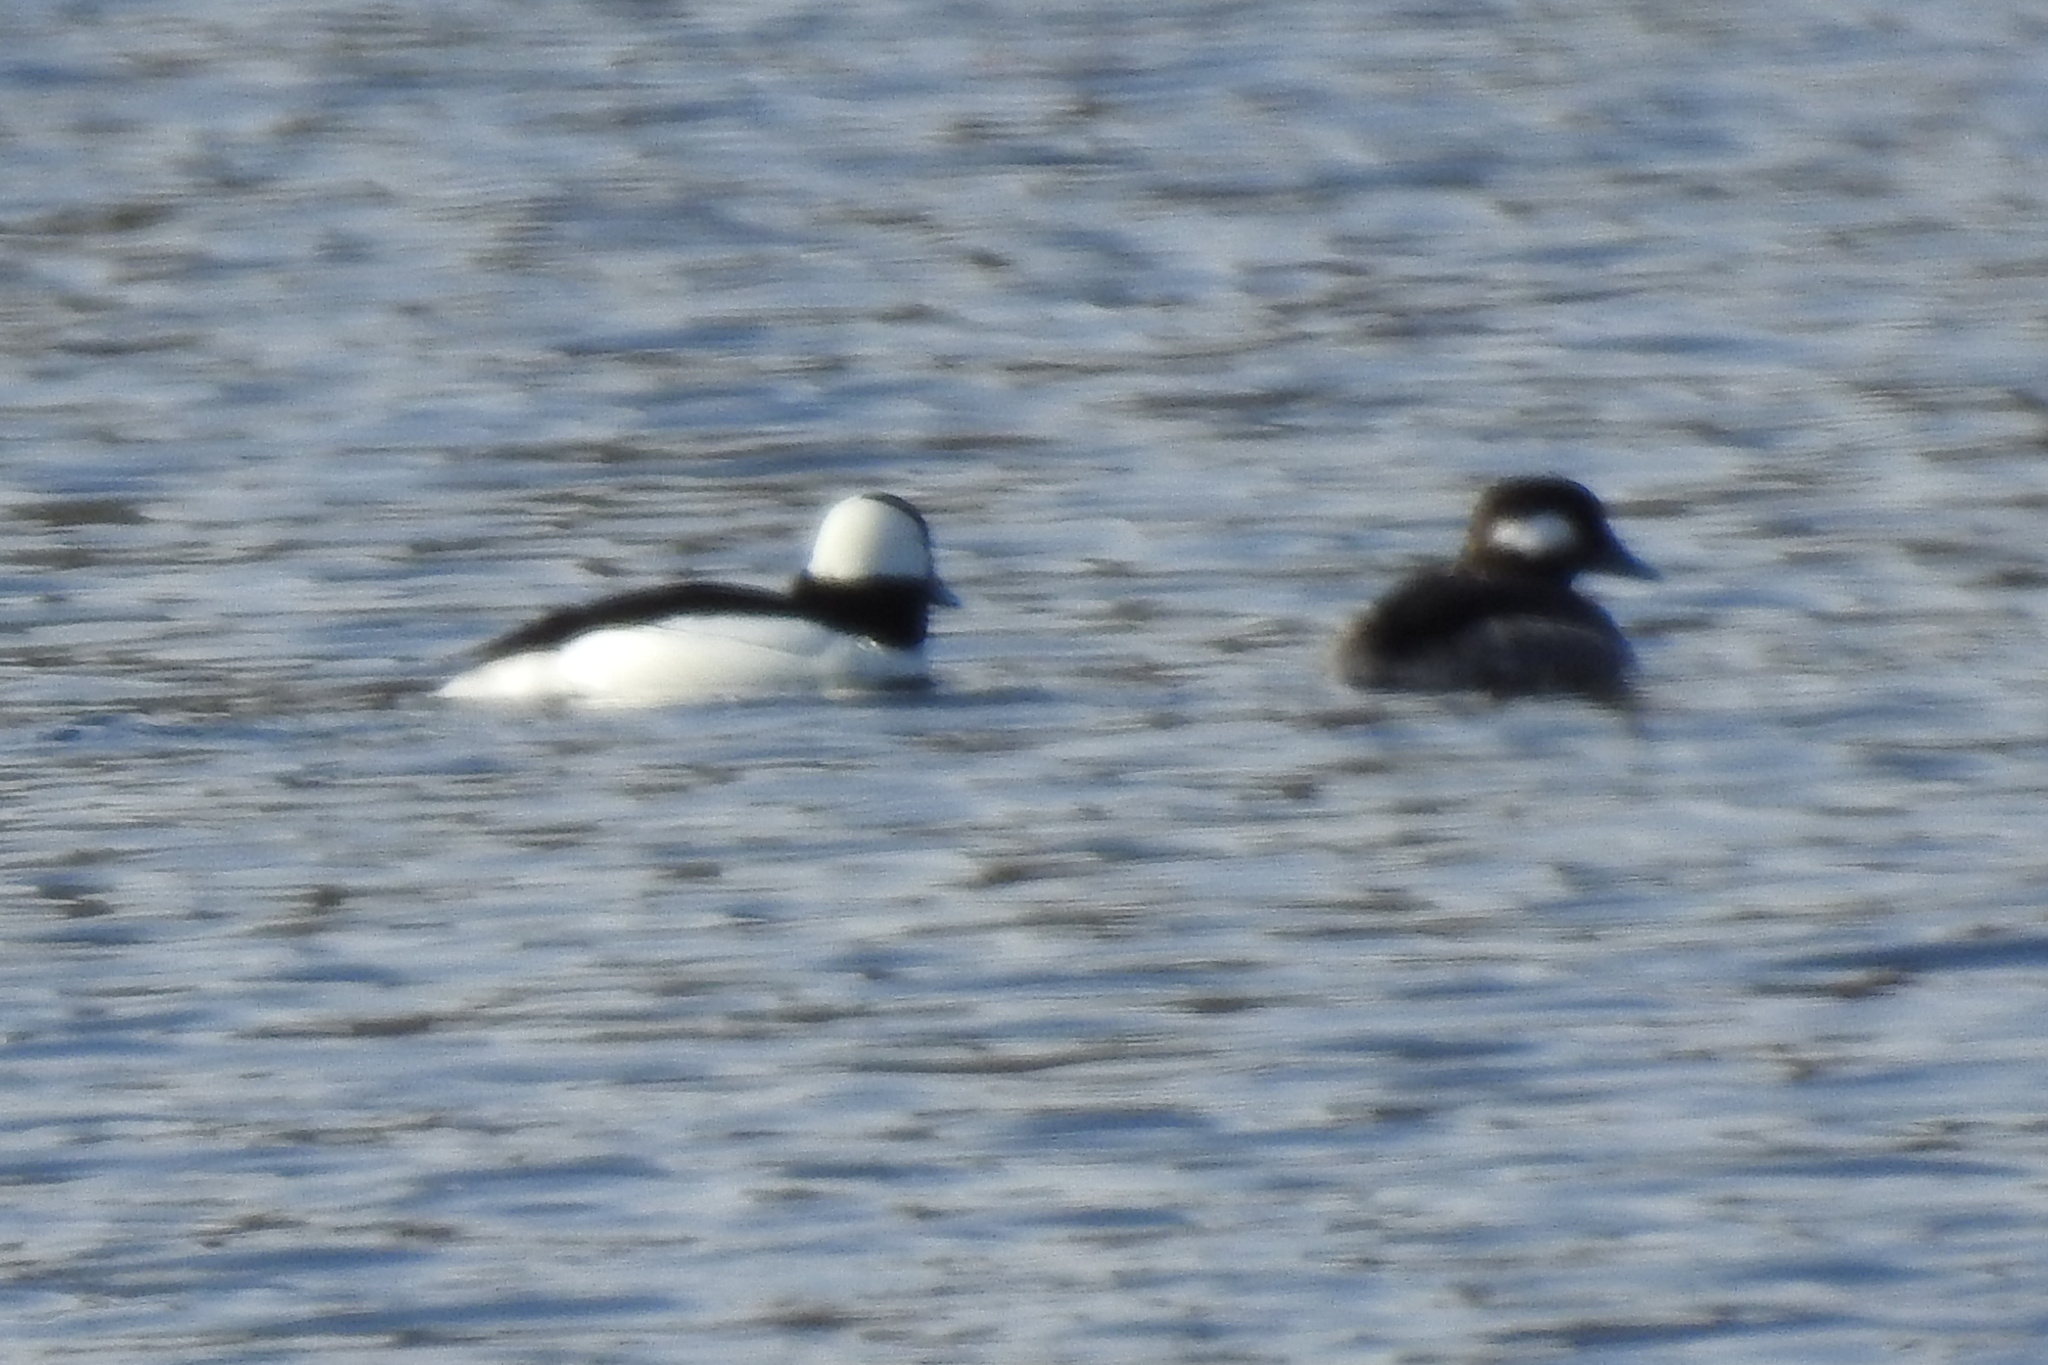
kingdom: Animalia
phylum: Chordata
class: Aves
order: Anseriformes
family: Anatidae
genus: Bucephala
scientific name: Bucephala albeola
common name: Bufflehead
